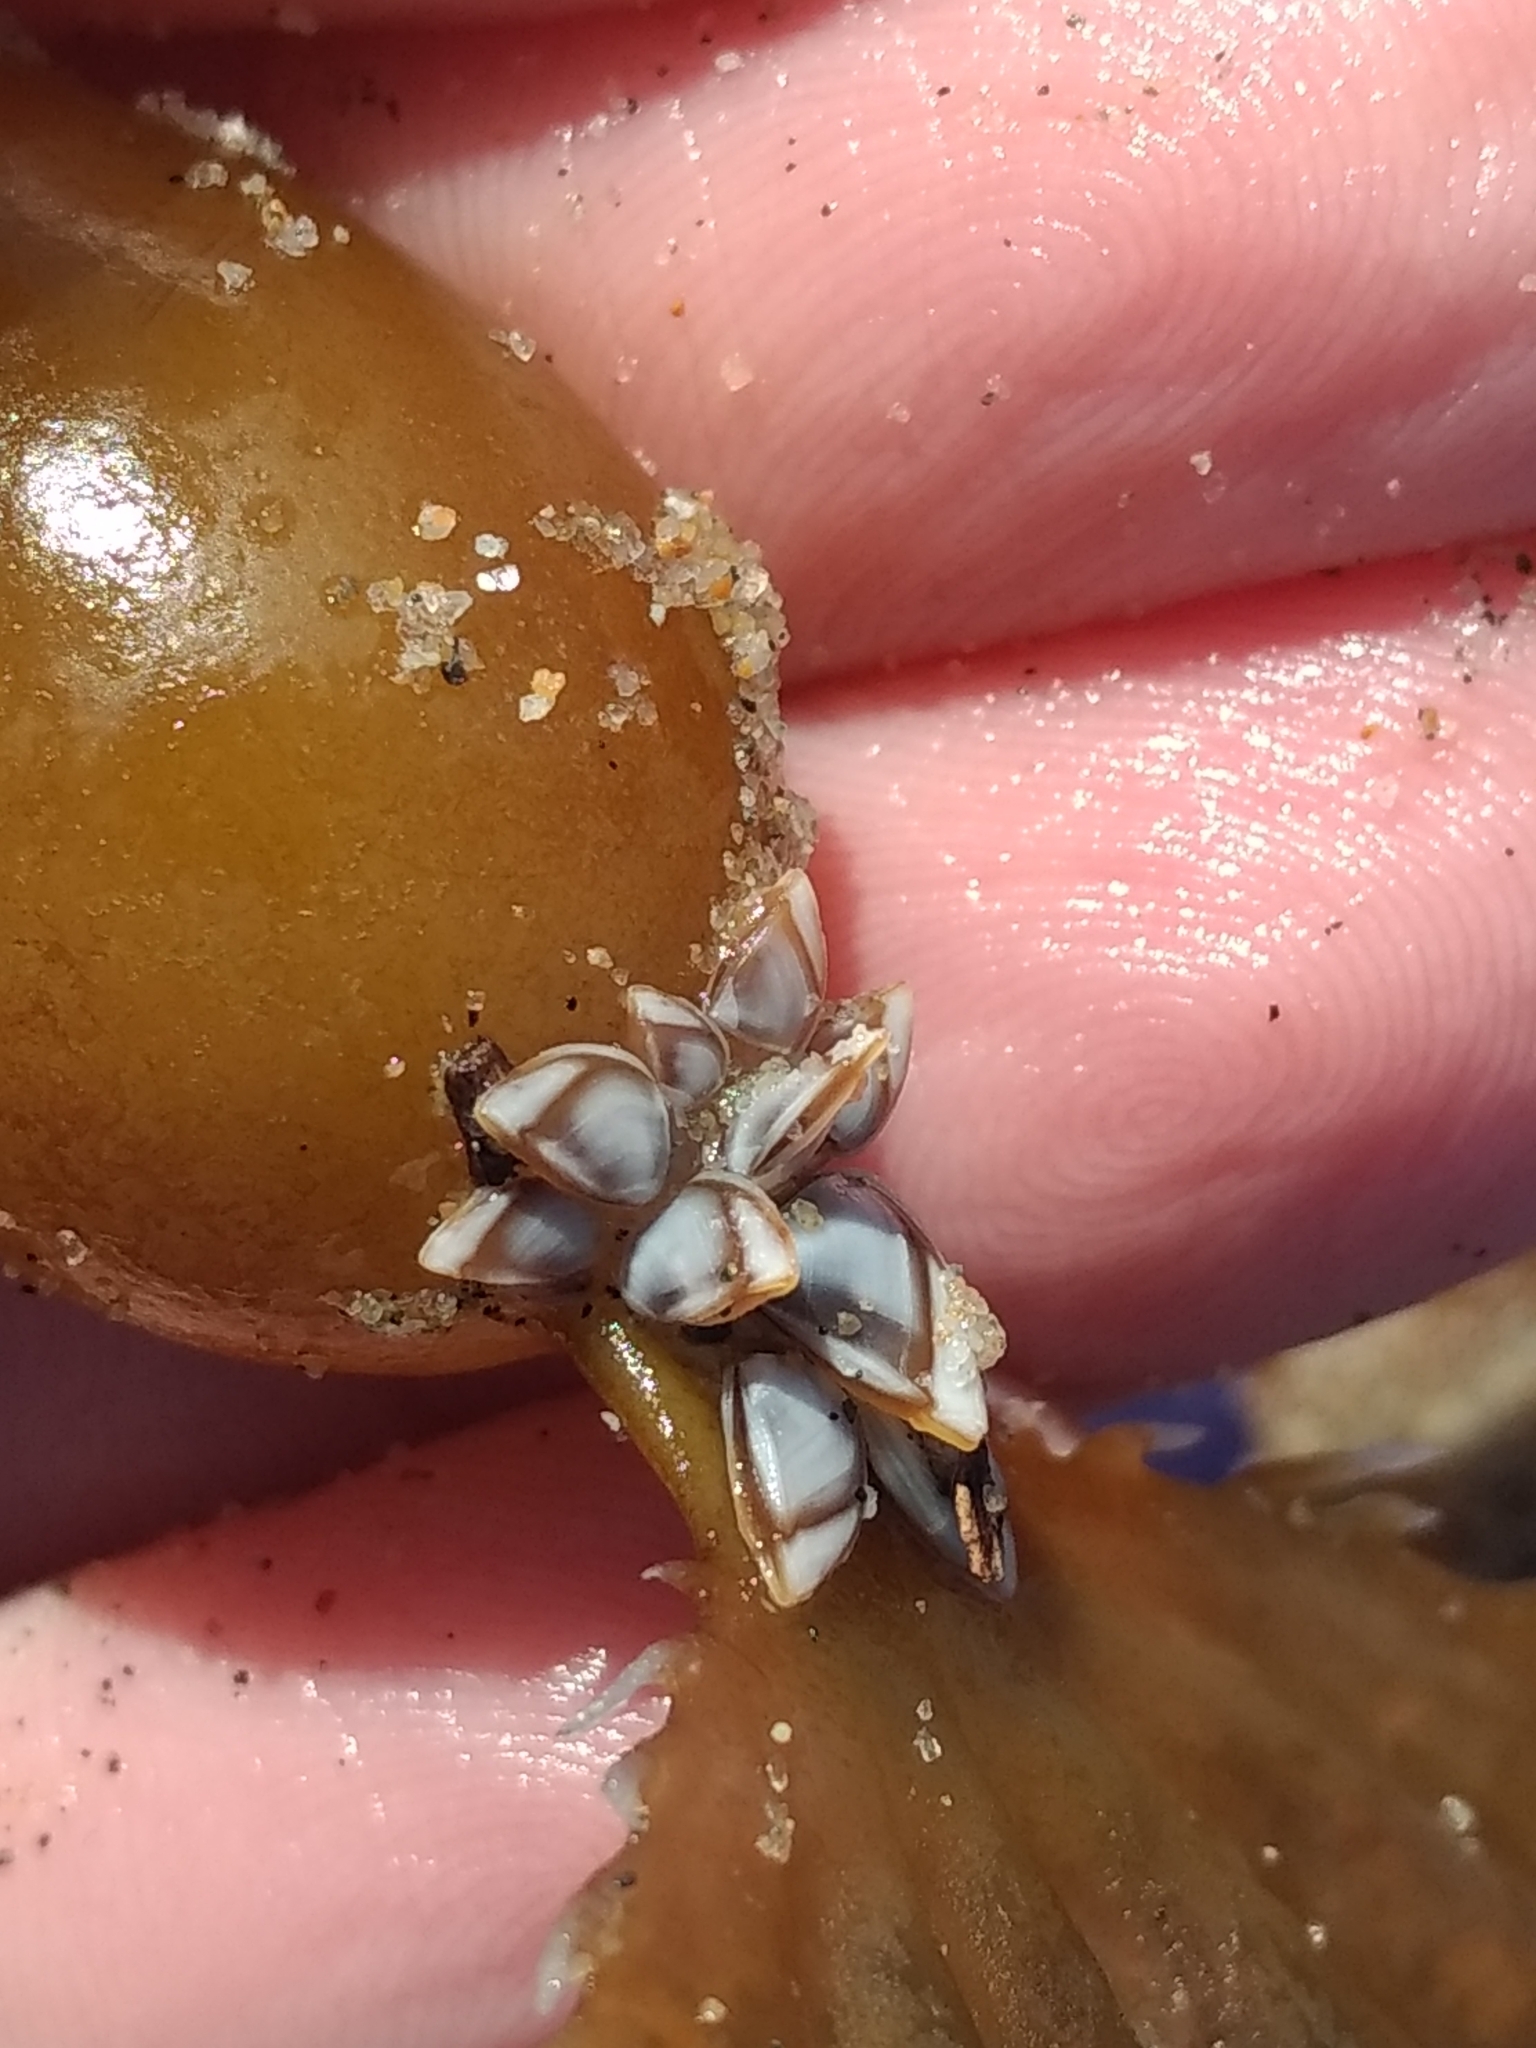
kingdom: Animalia
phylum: Arthropoda
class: Maxillopoda
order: Pedunculata
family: Lepadidae
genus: Lepas
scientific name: Lepas pacifica
